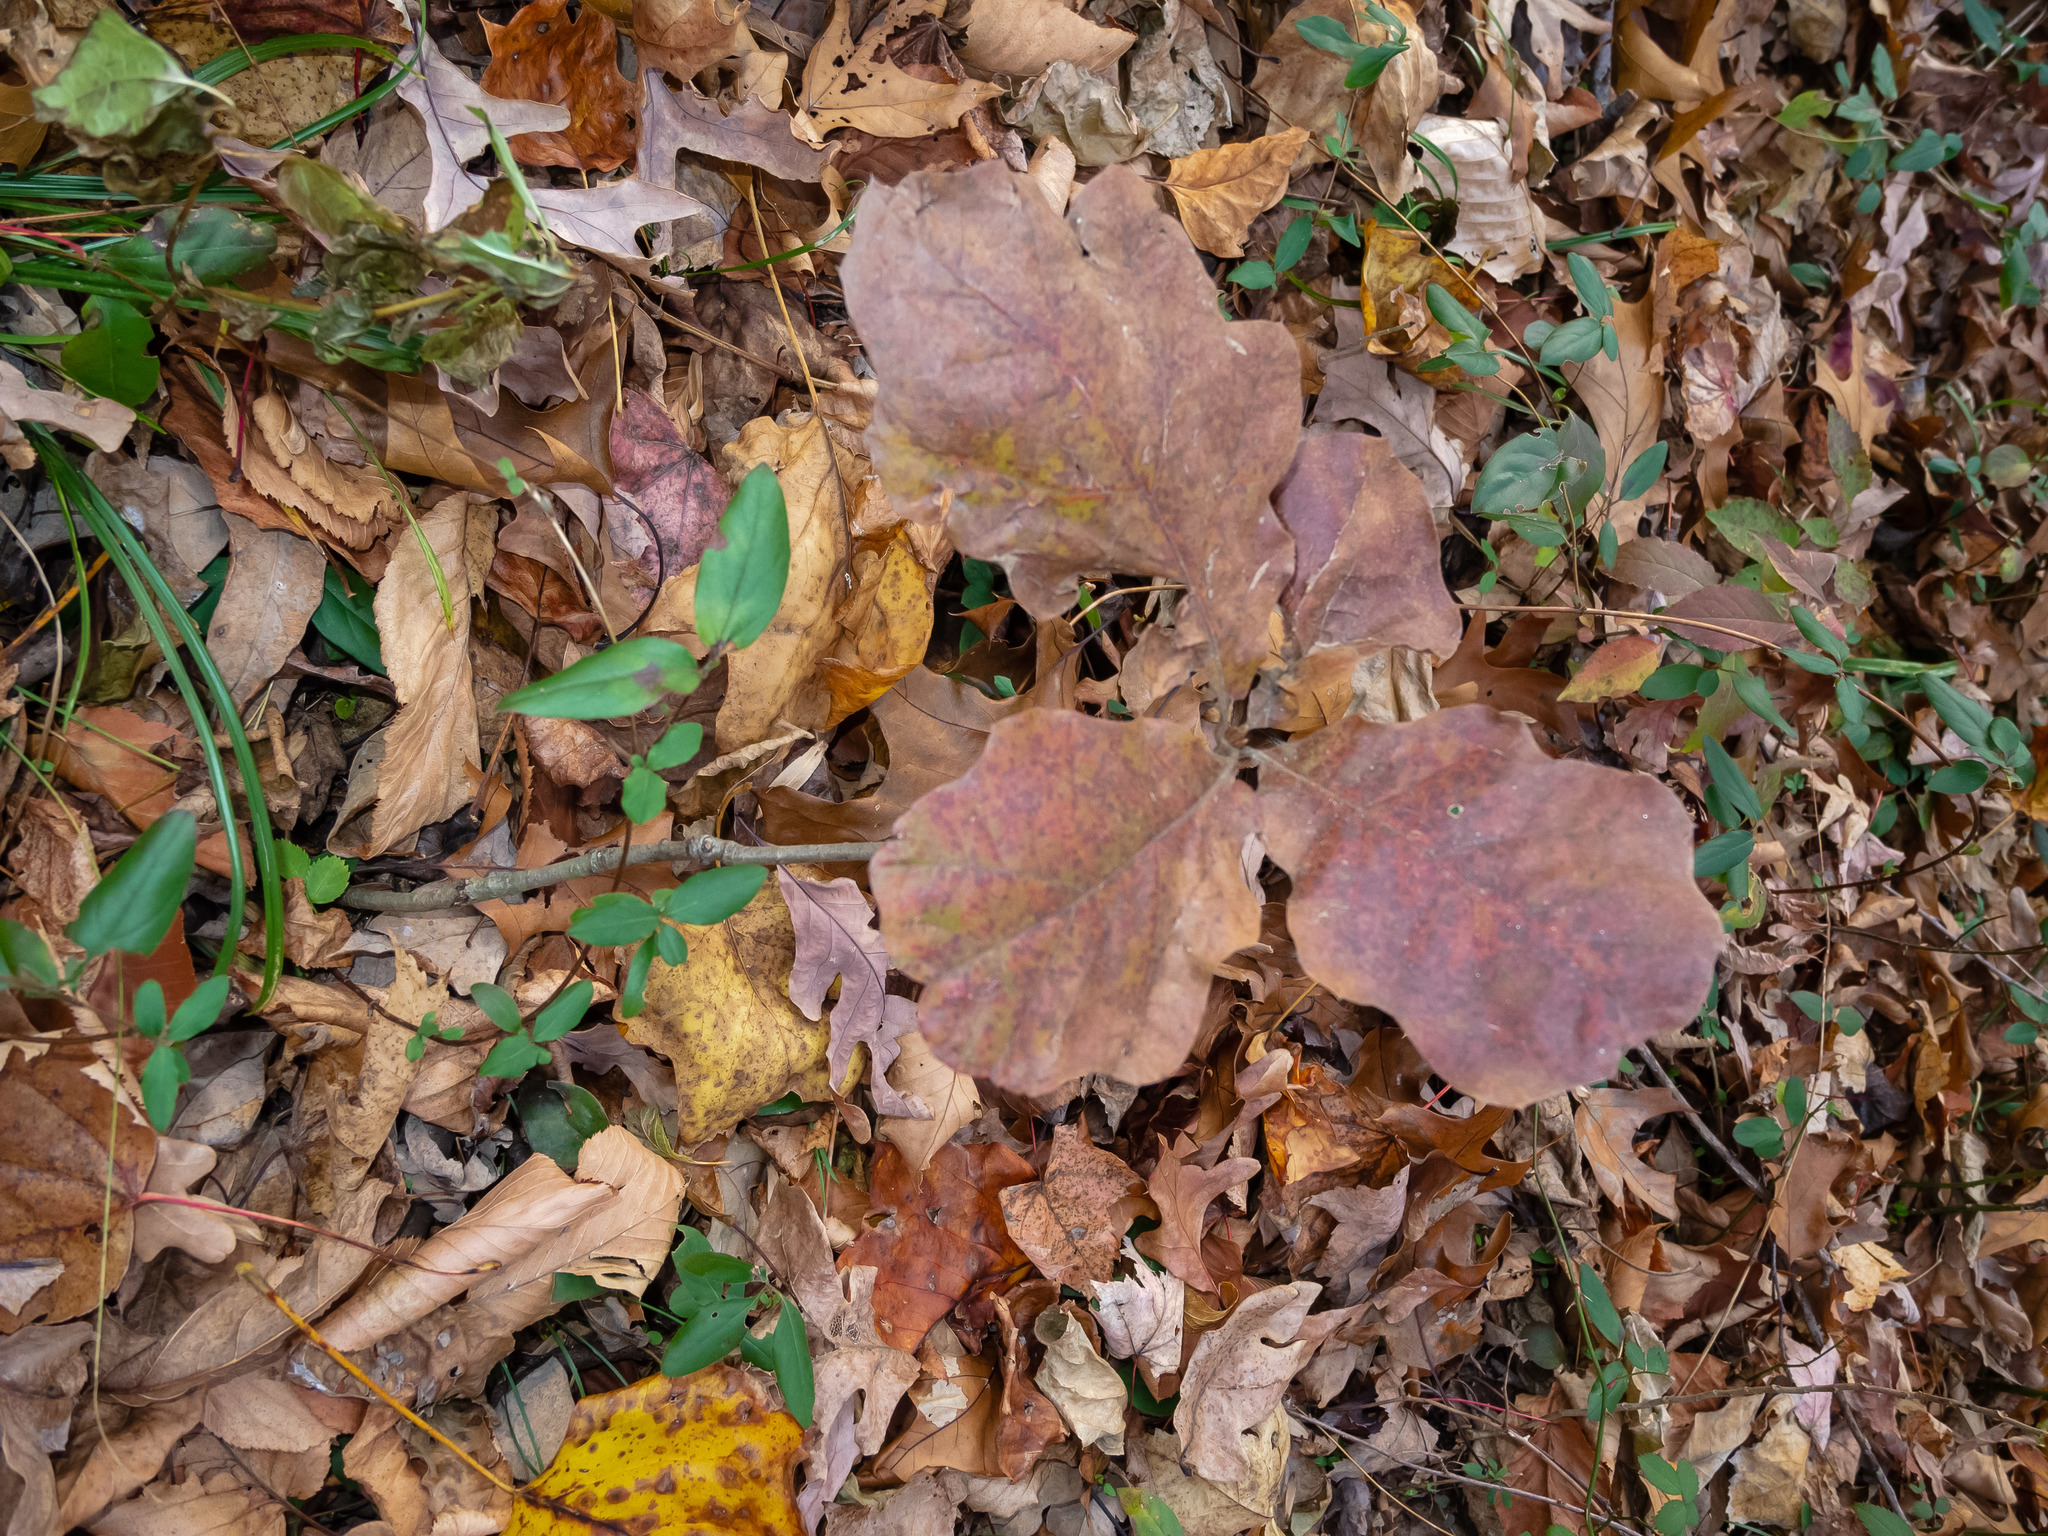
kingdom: Plantae
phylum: Tracheophyta
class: Magnoliopsida
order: Fagales
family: Fagaceae
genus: Quercus
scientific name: Quercus velutina
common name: Black oak
